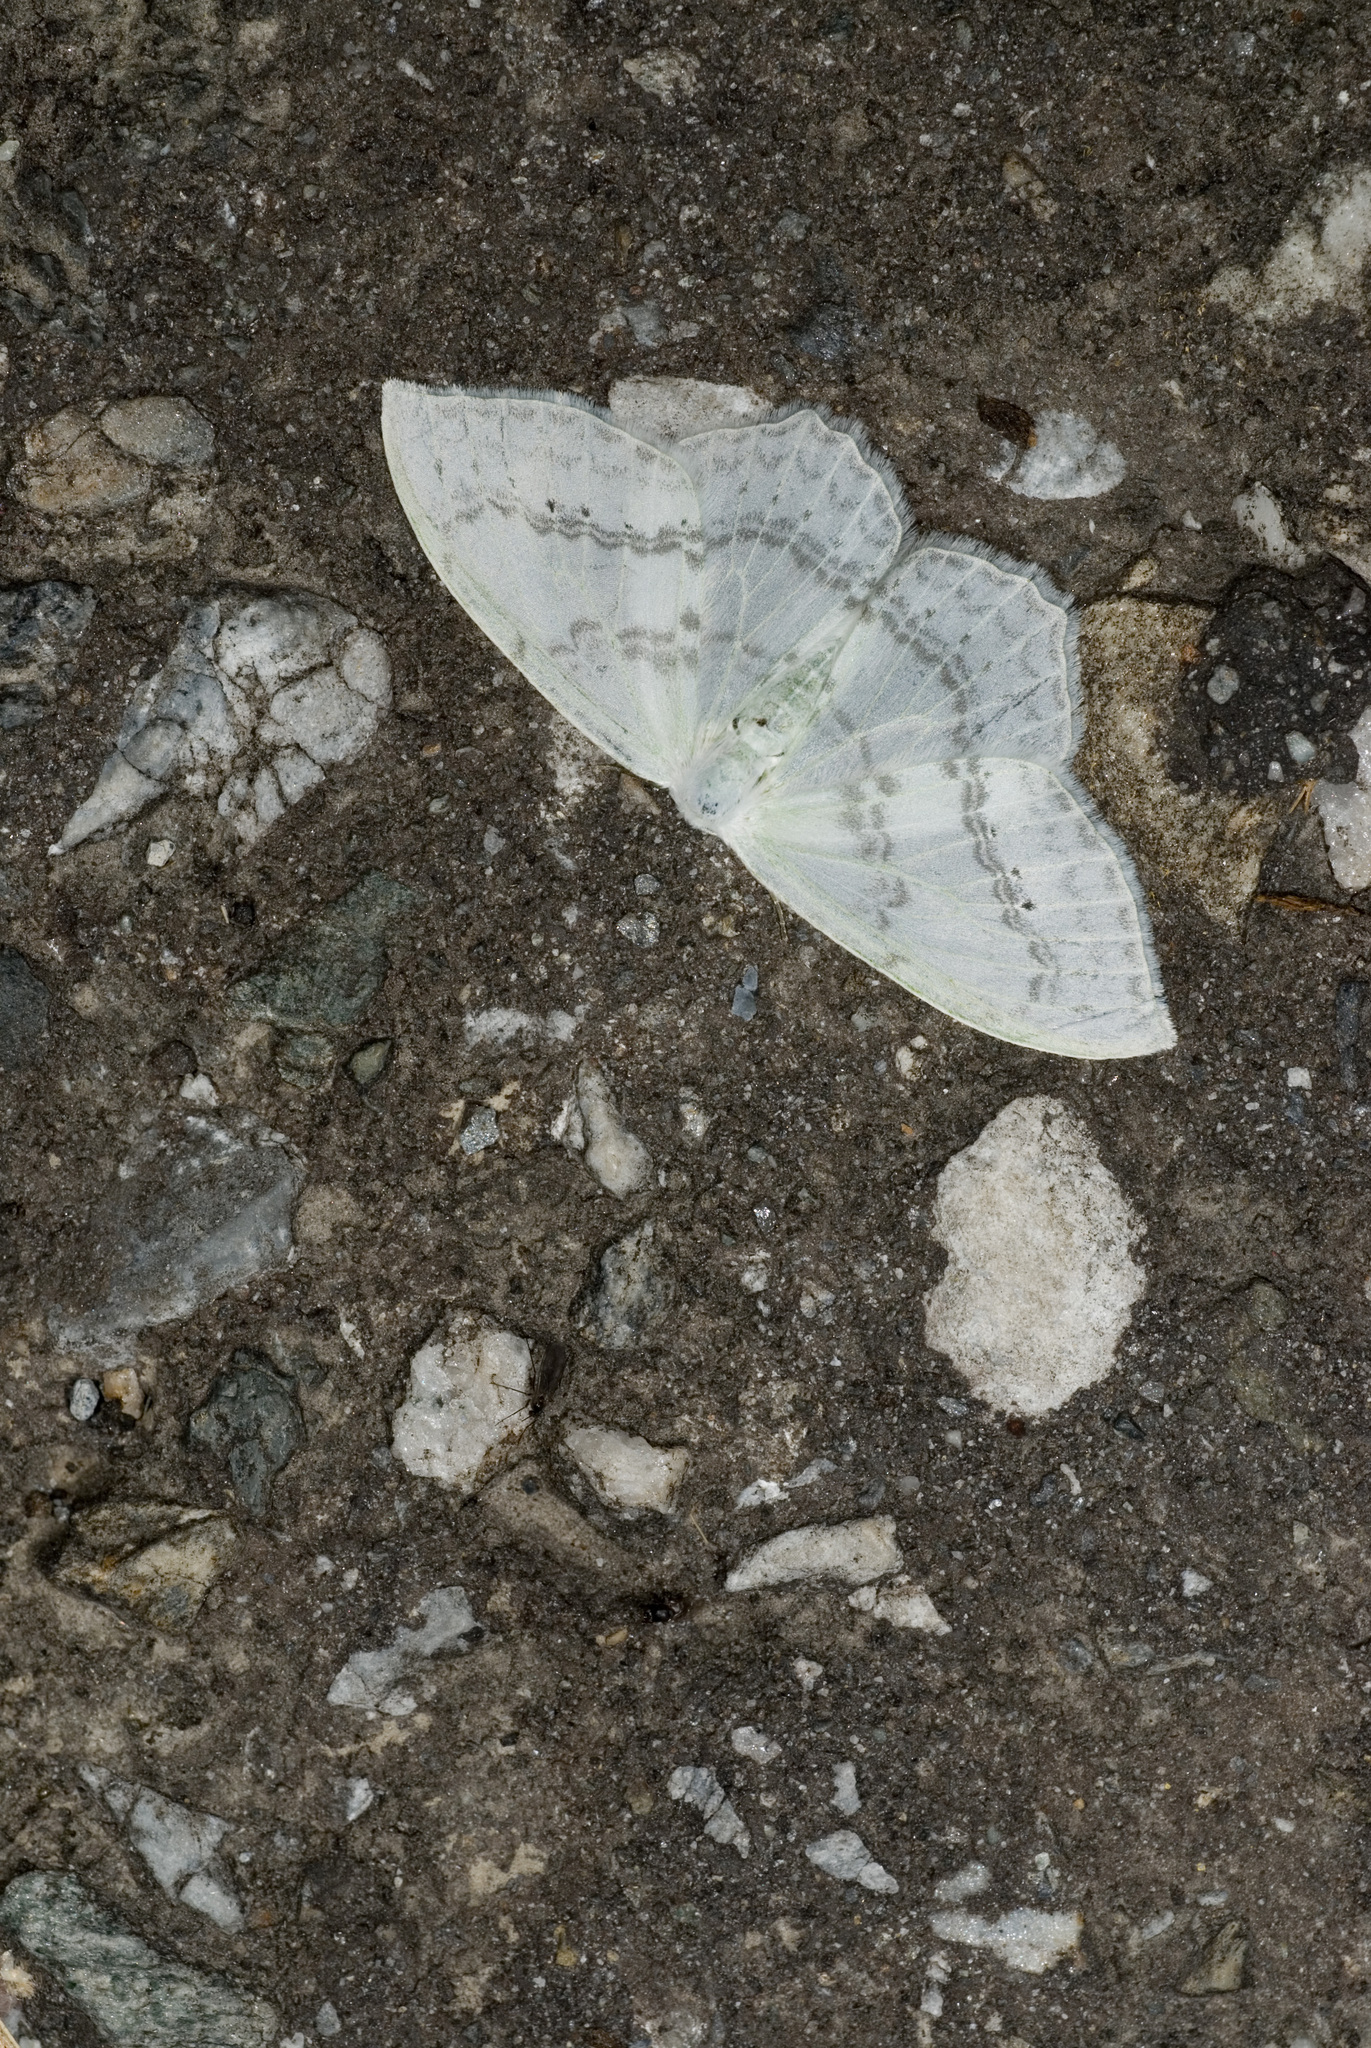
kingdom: Animalia
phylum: Arthropoda
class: Insecta
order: Lepidoptera
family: Drepanidae
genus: Auzata
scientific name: Auzata simpliciata
